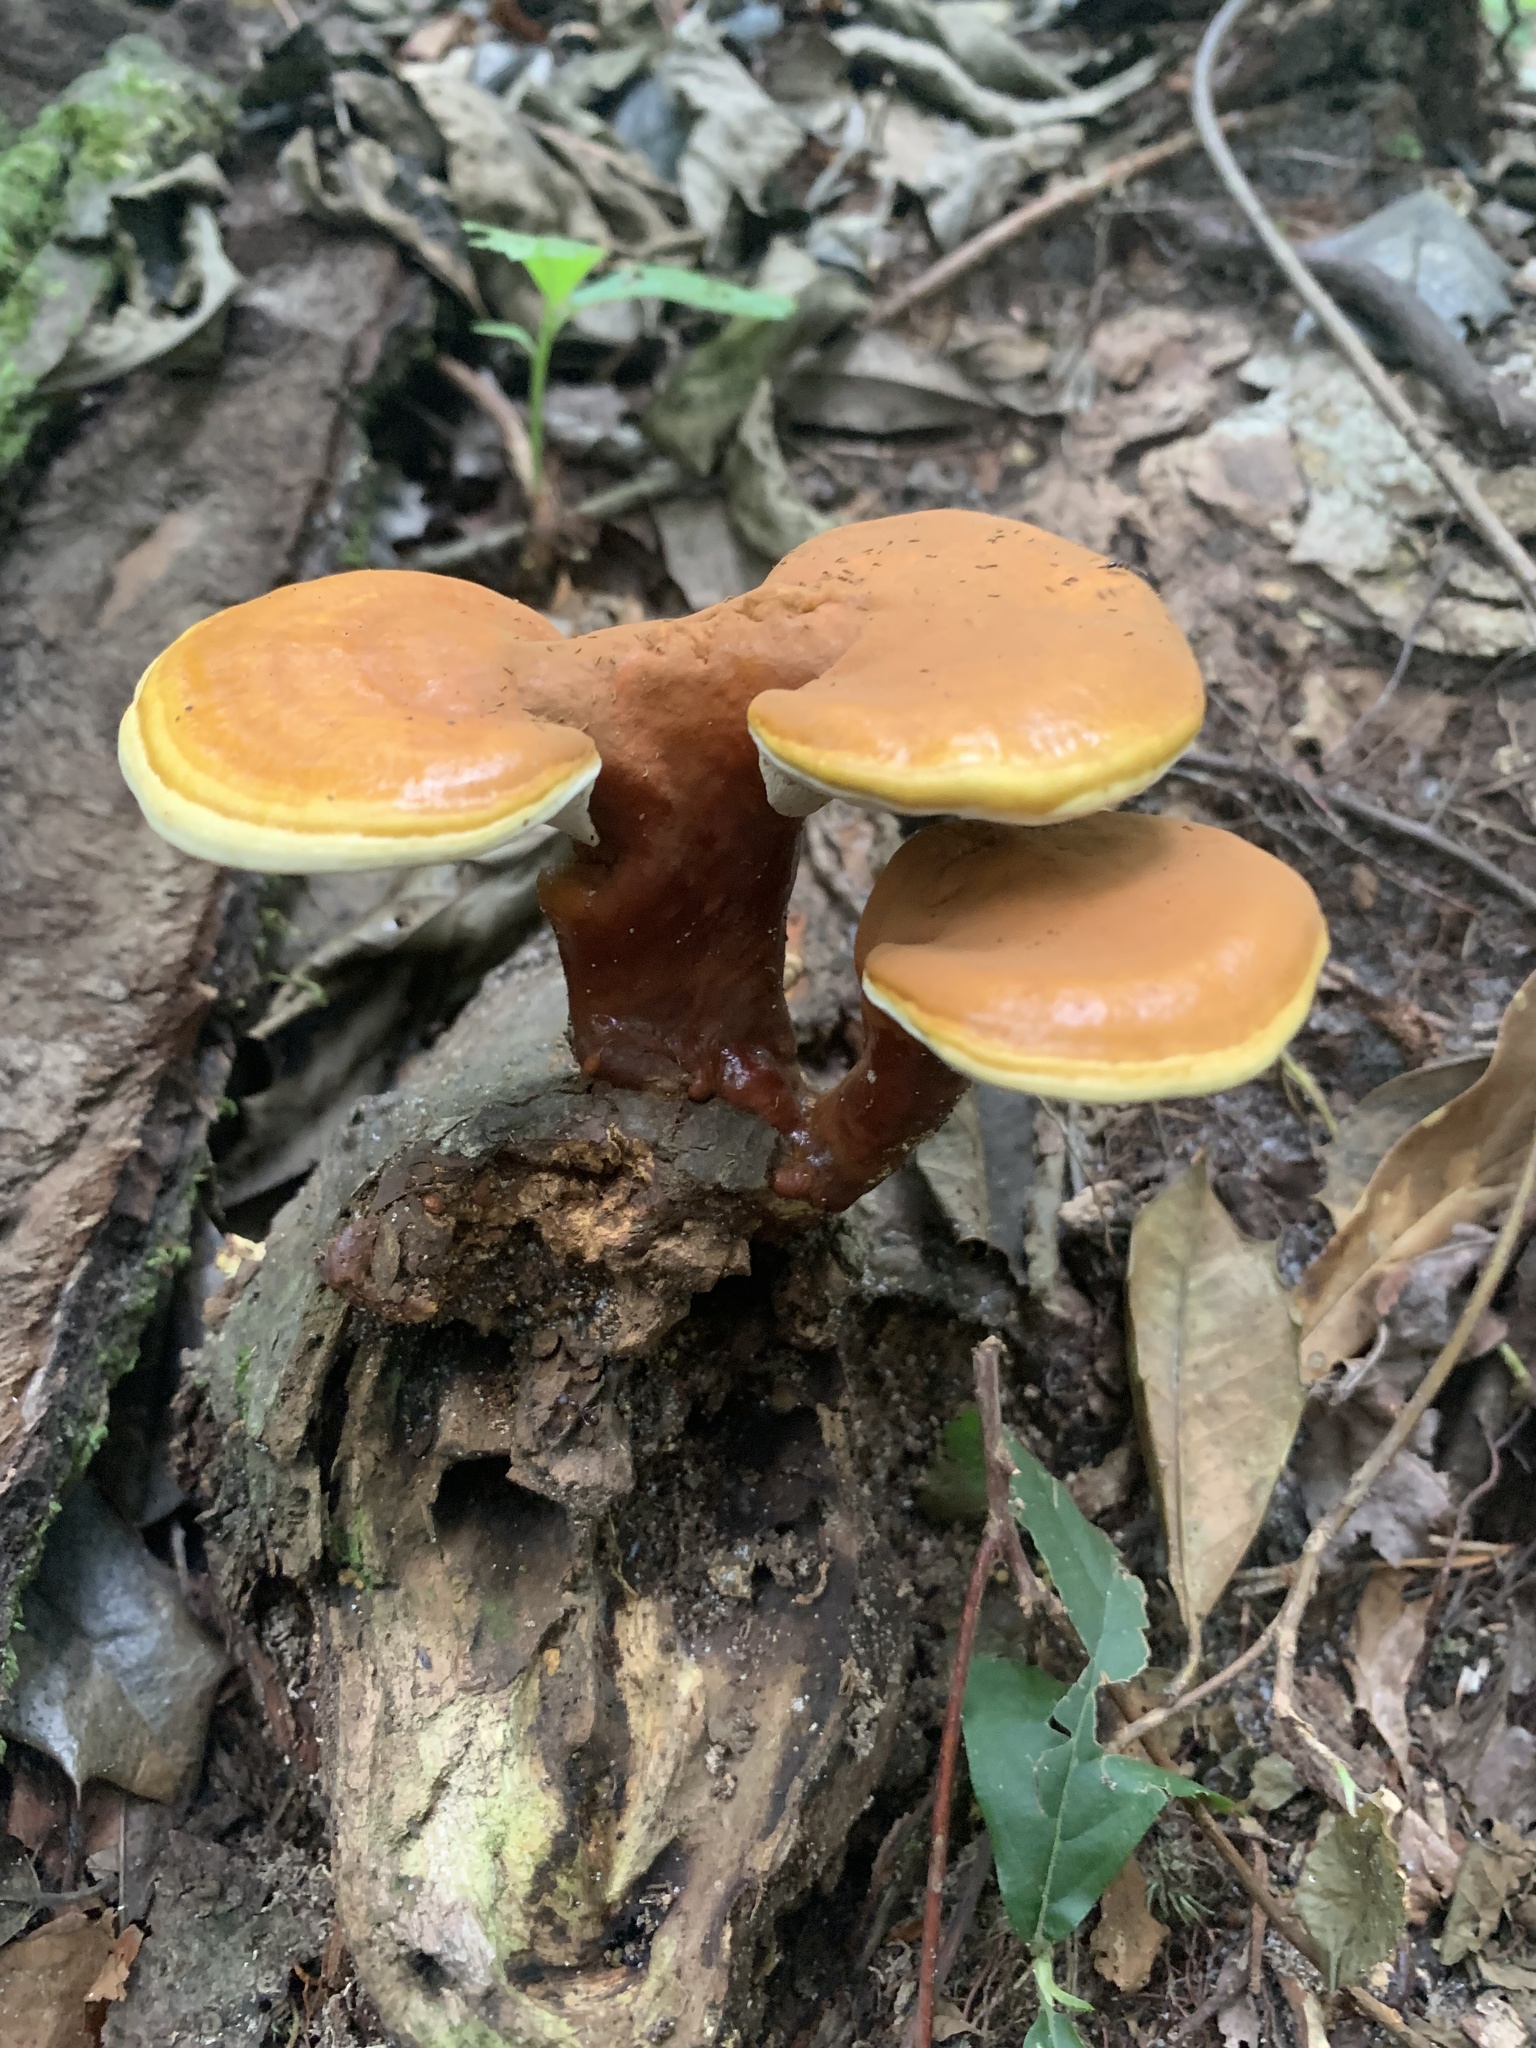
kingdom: Fungi
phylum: Basidiomycota
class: Agaricomycetes
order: Polyporales
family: Polyporaceae
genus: Ganoderma
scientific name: Ganoderma
